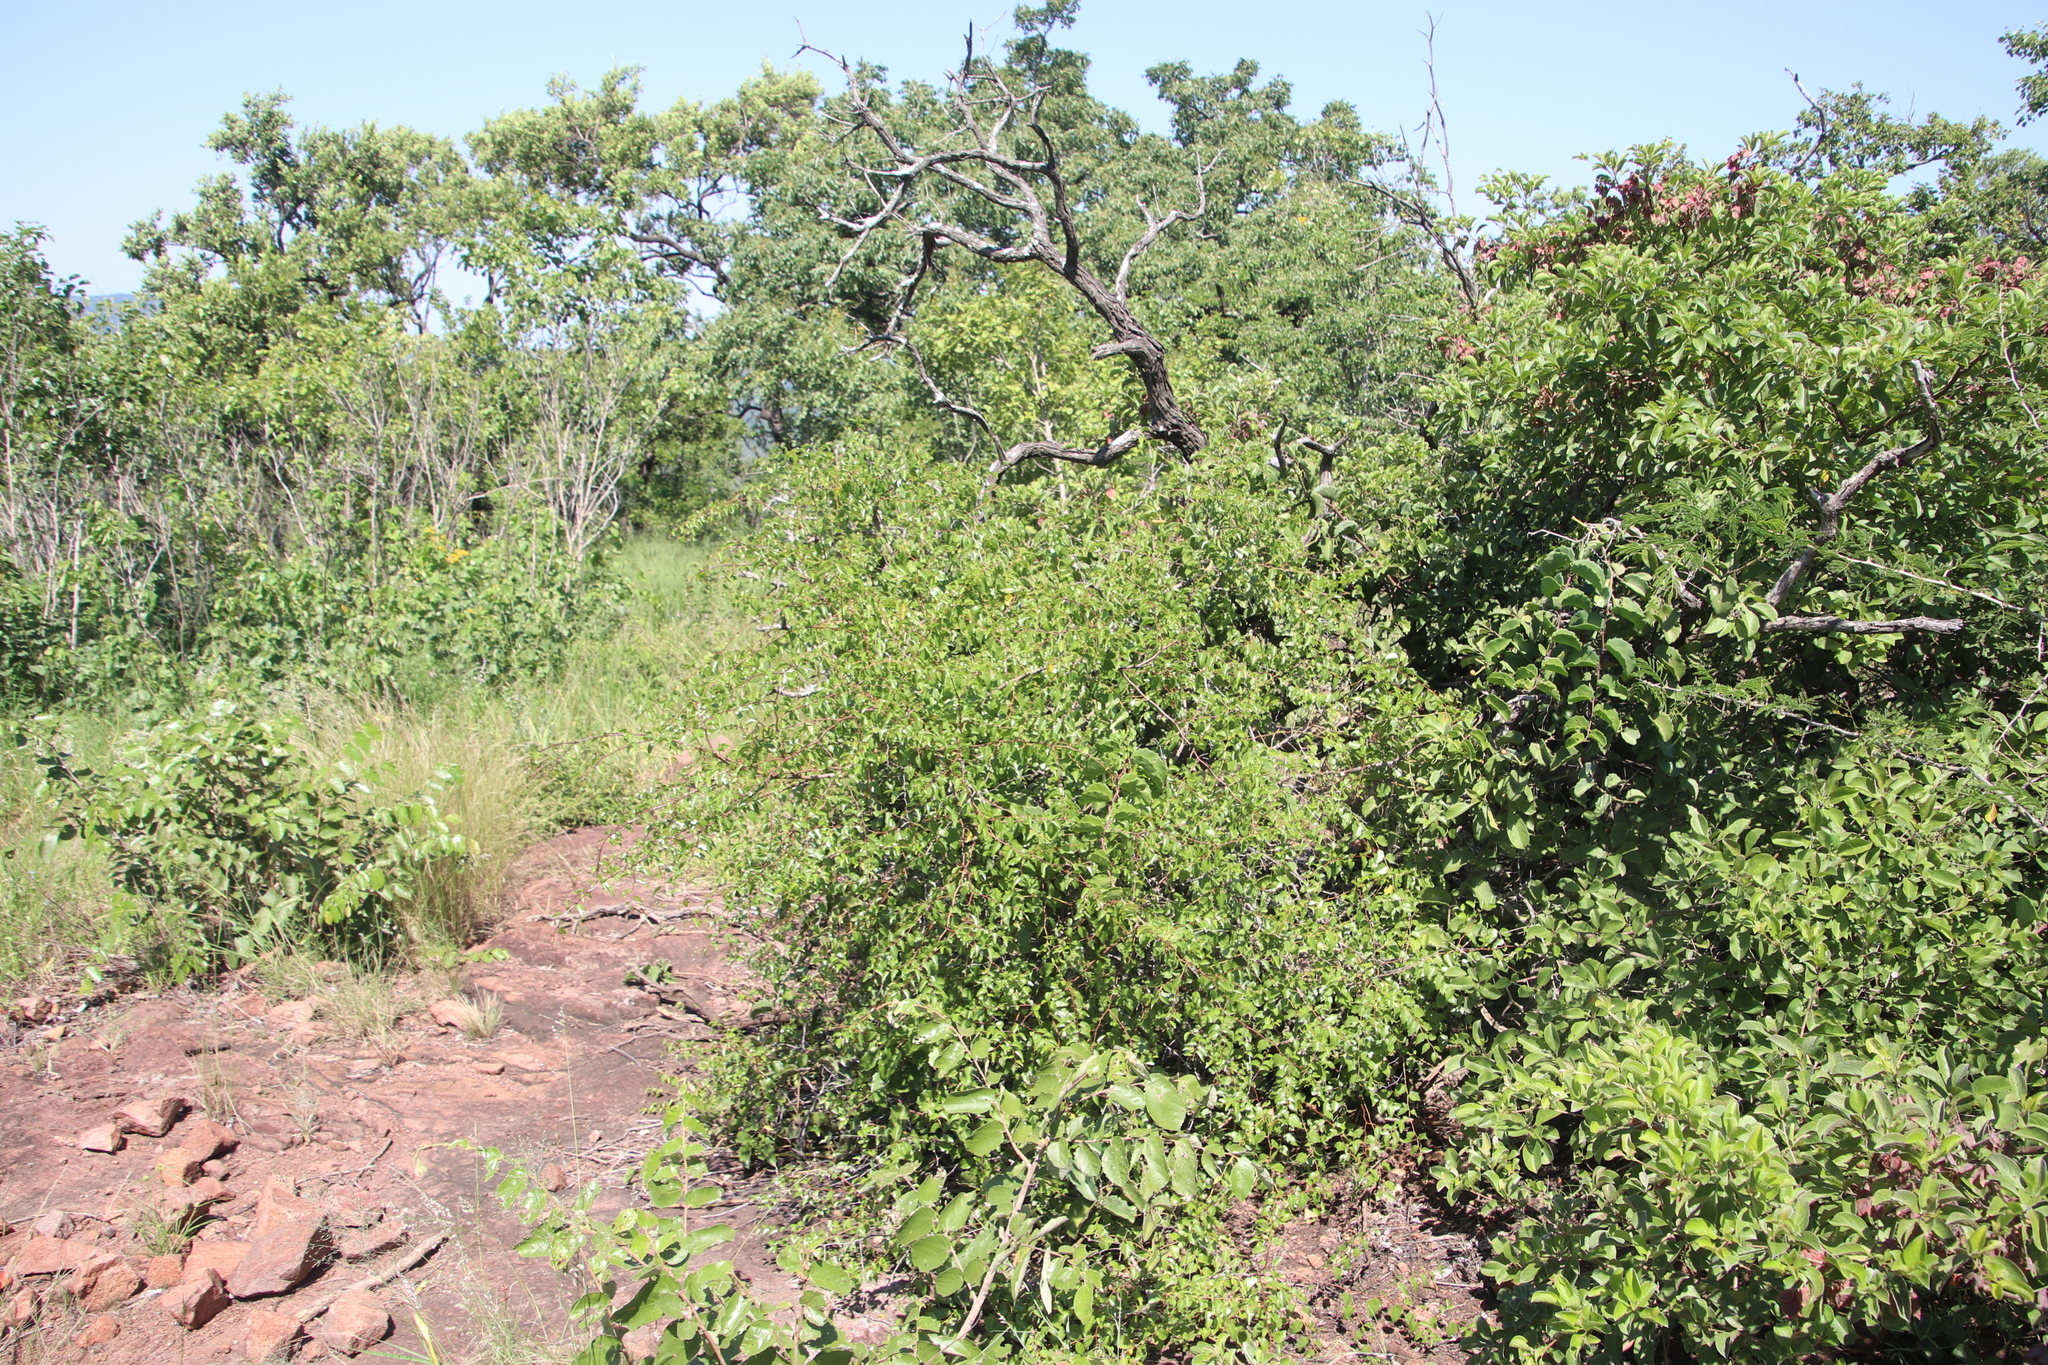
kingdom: Plantae
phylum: Tracheophyta
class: Magnoliopsida
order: Rosales
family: Rhamnaceae
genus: Ziziphus
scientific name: Ziziphus mucronata
